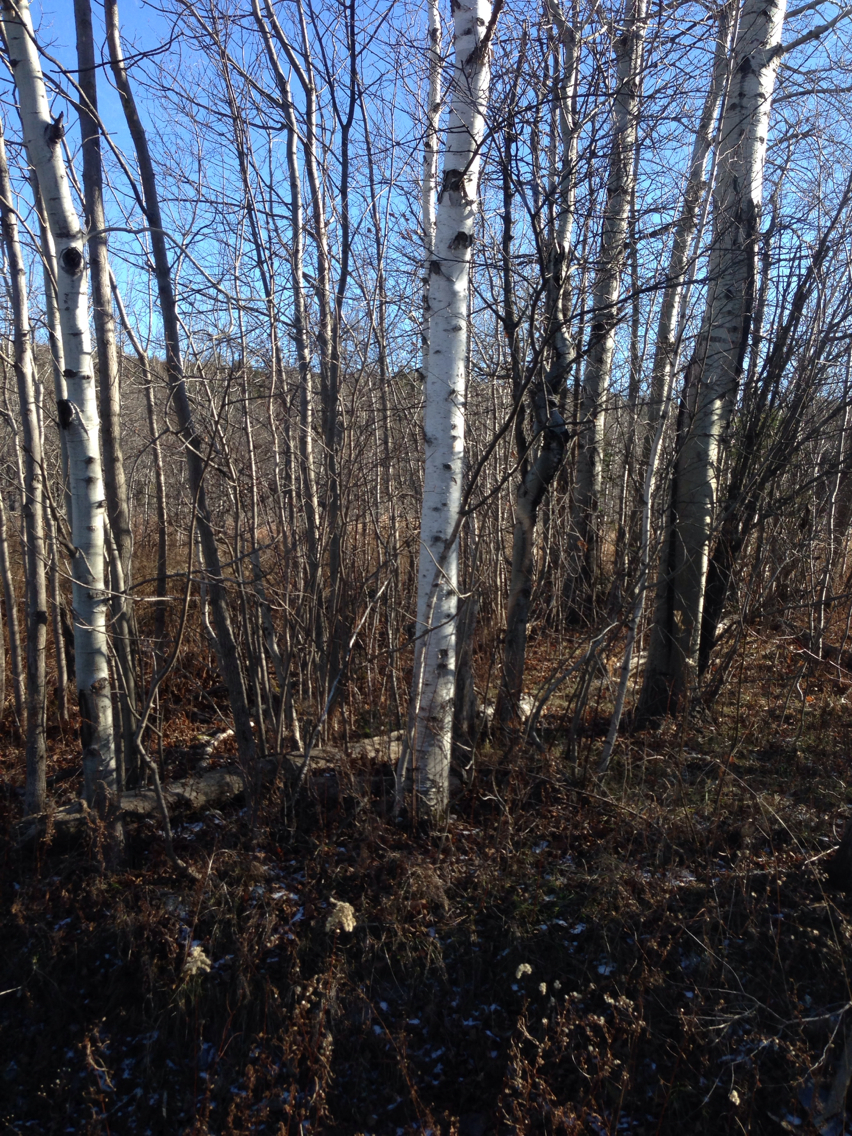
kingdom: Plantae
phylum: Tracheophyta
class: Magnoliopsida
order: Fagales
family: Betulaceae
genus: Betula
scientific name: Betula papyrifera
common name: Paper birch
